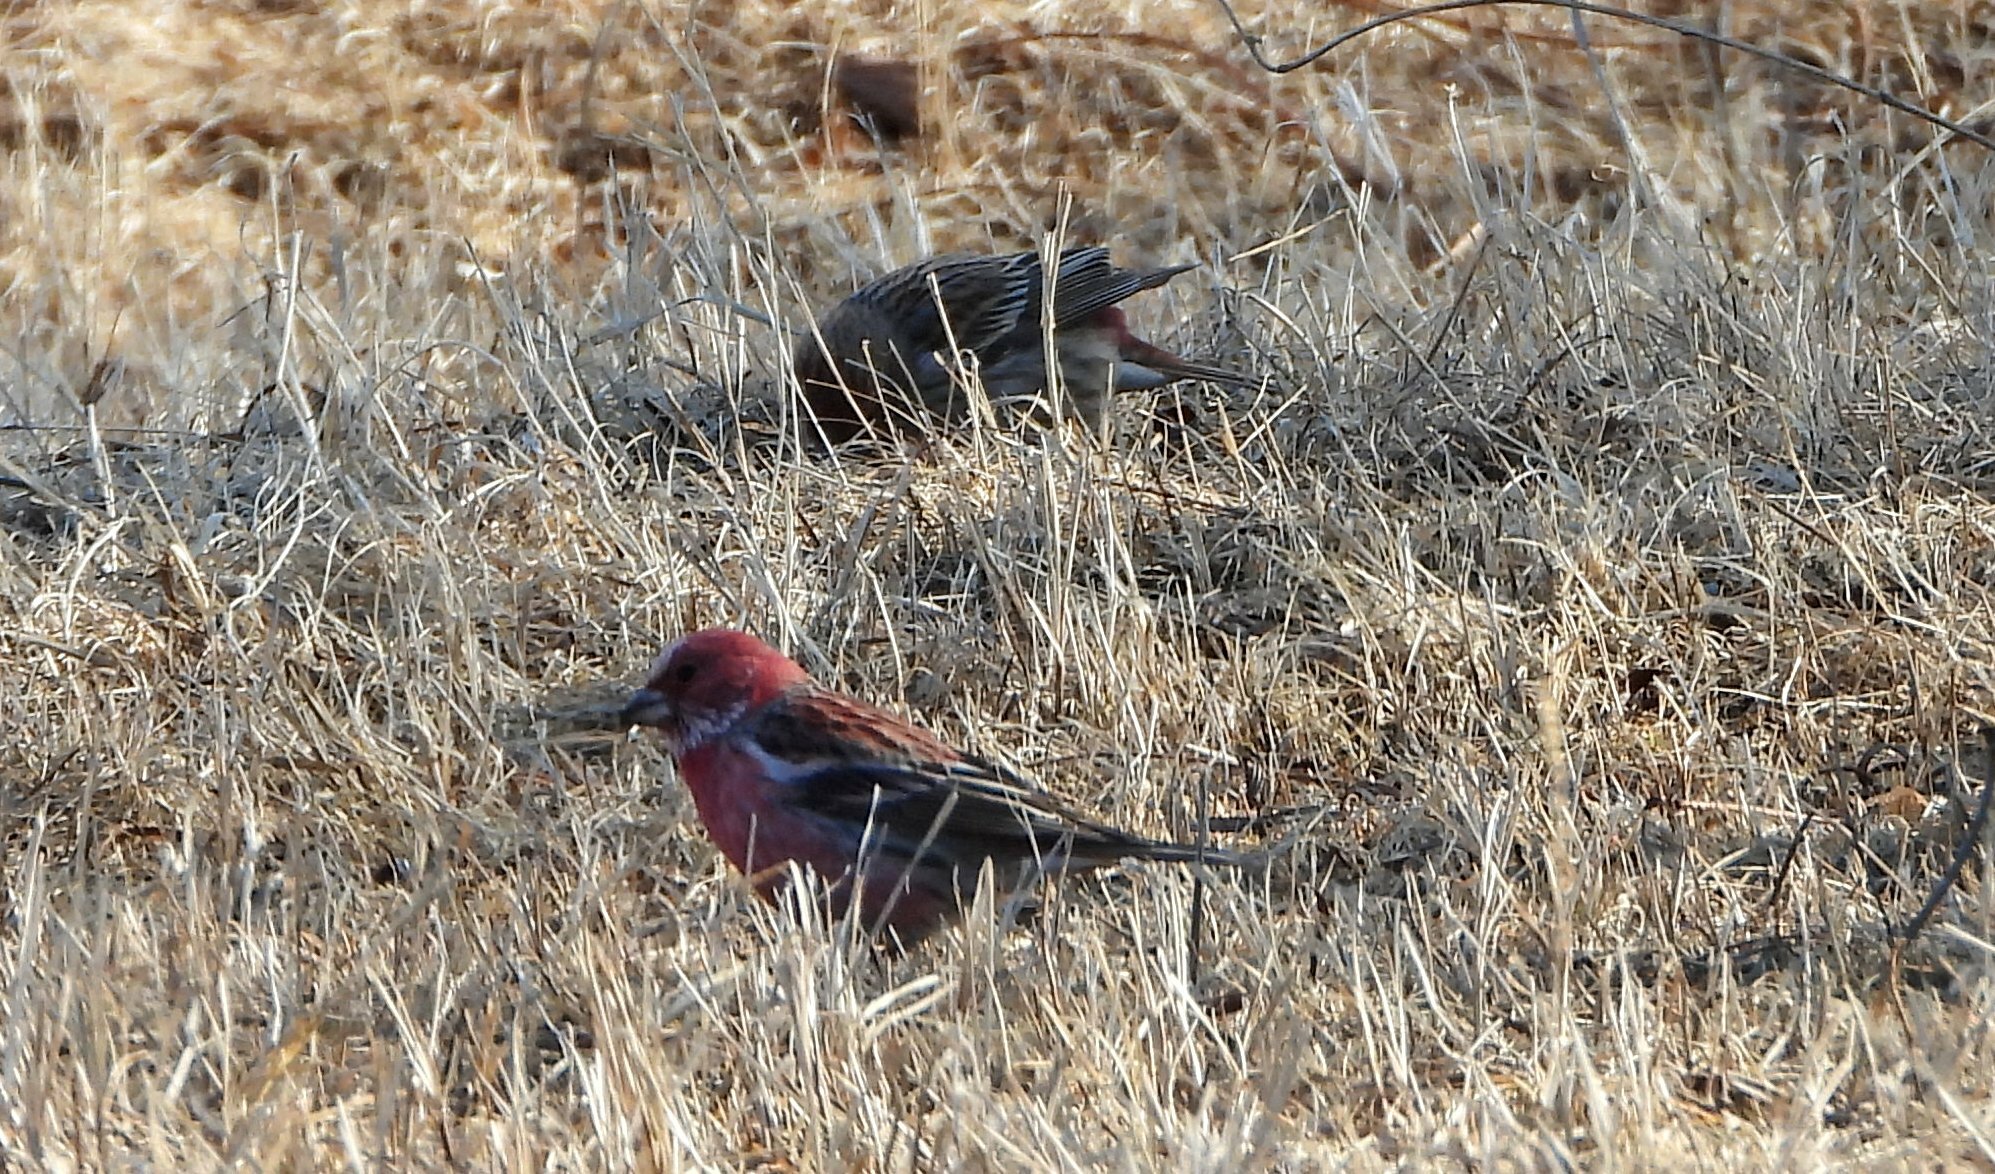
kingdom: Animalia
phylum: Chordata
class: Aves
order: Passeriformes
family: Fringillidae
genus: Carpodacus
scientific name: Carpodacus roseus
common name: Pallas's rosefinch
